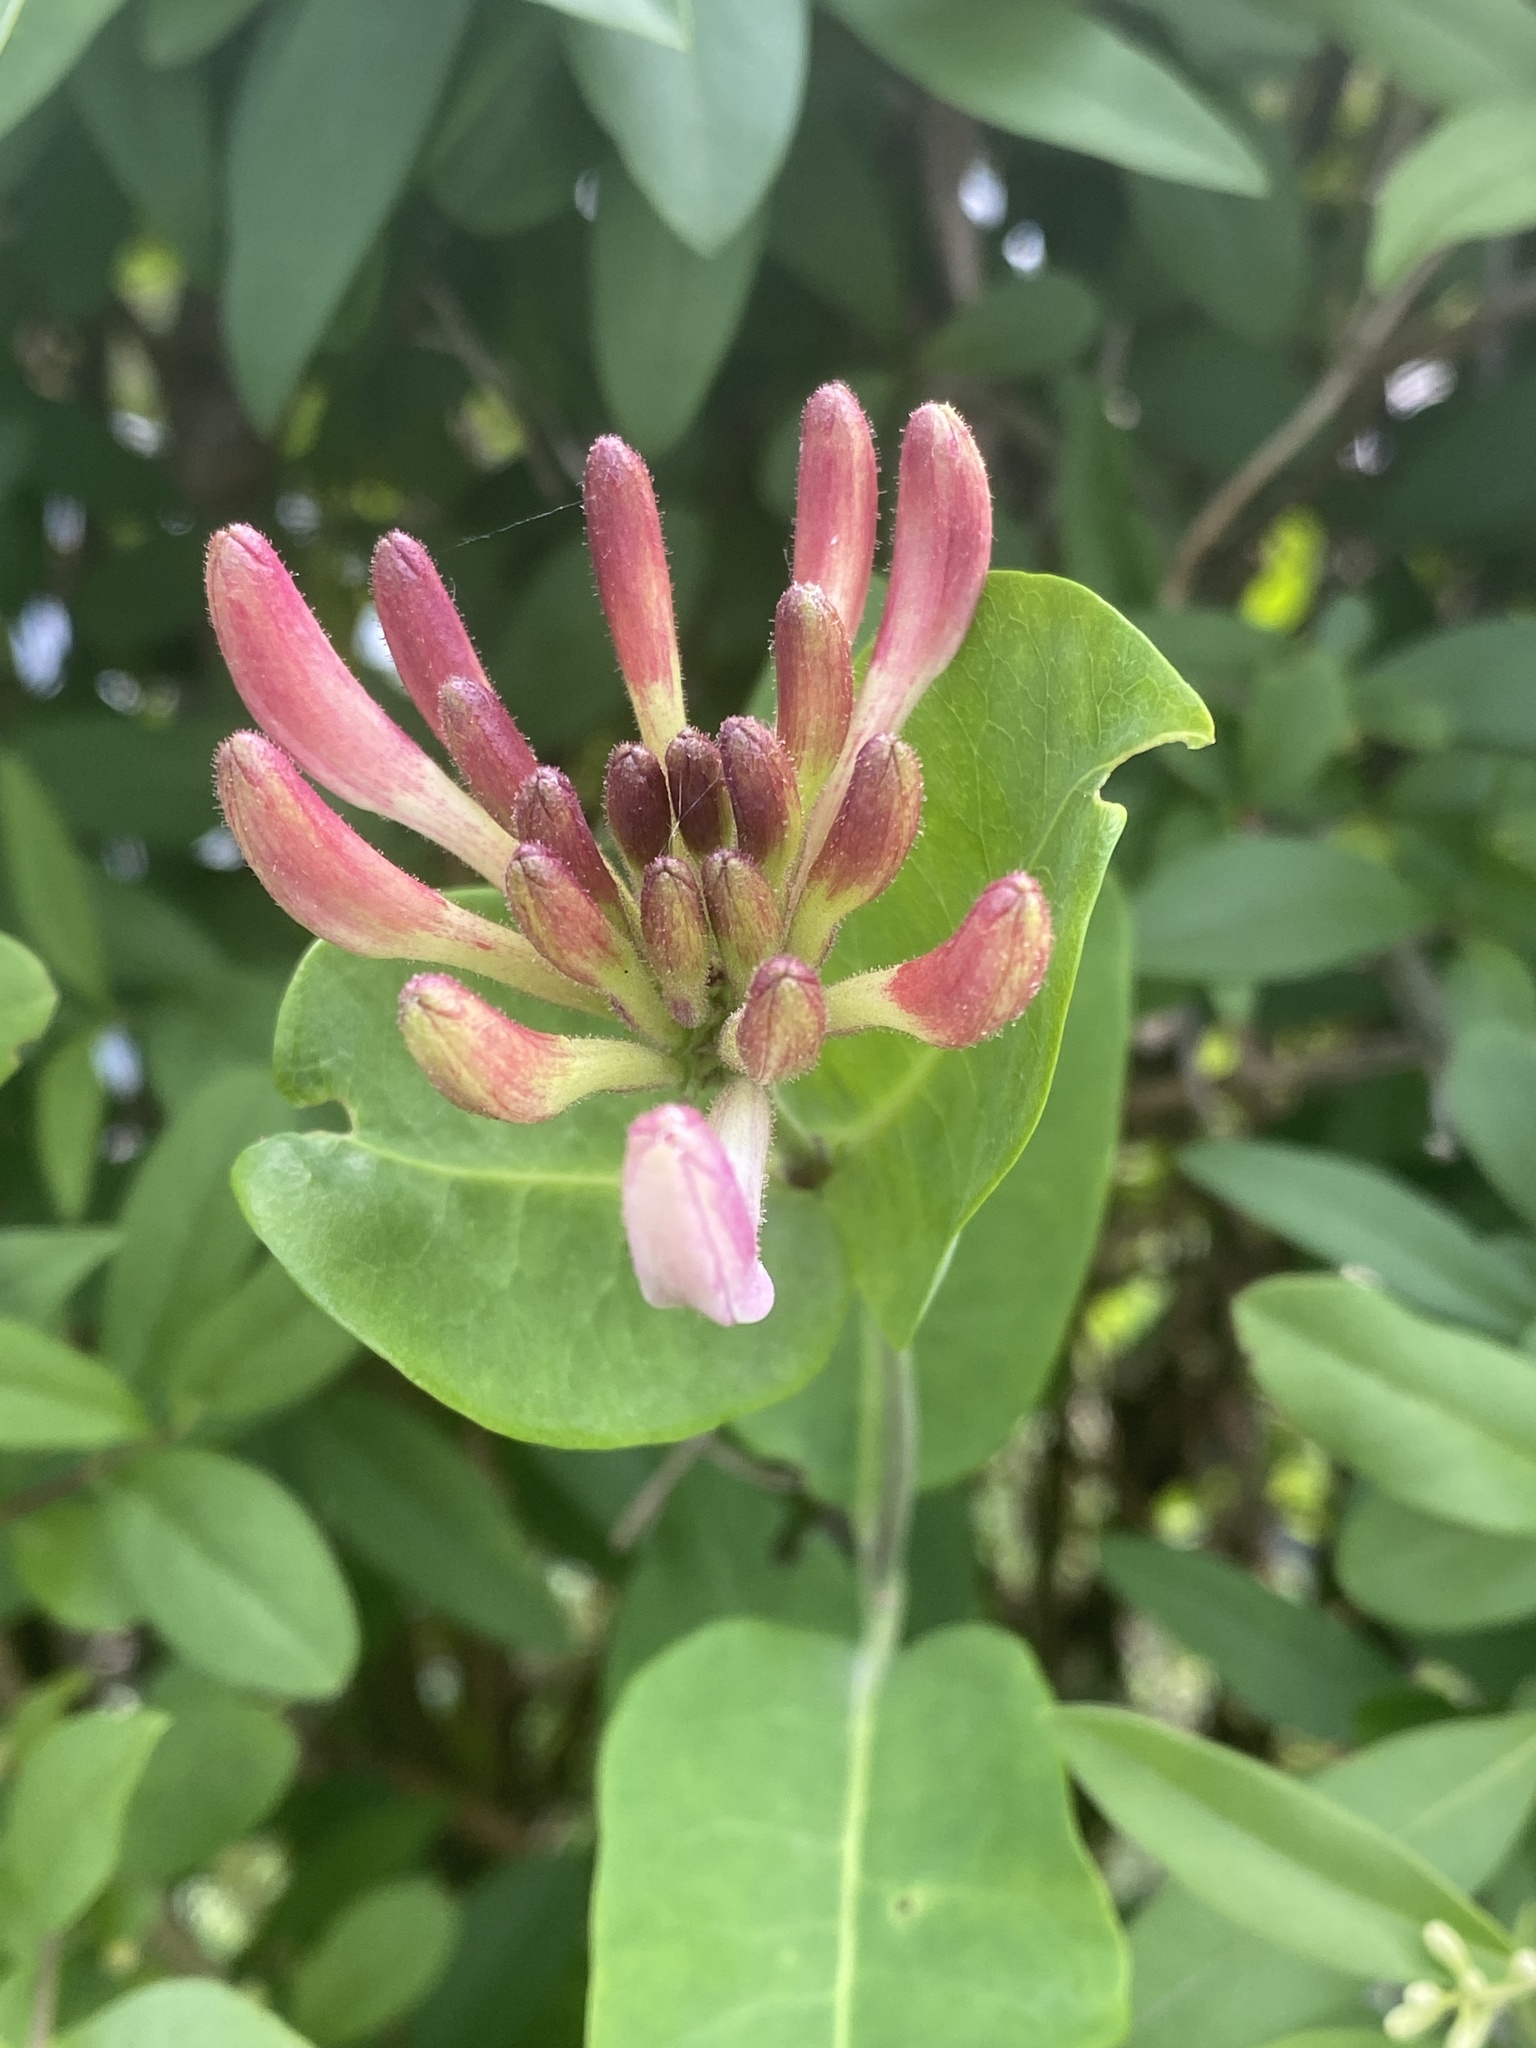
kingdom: Plantae
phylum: Tracheophyta
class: Magnoliopsida
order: Dipsacales
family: Caprifoliaceae
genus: Lonicera
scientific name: Lonicera periclymenum
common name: European honeysuckle
